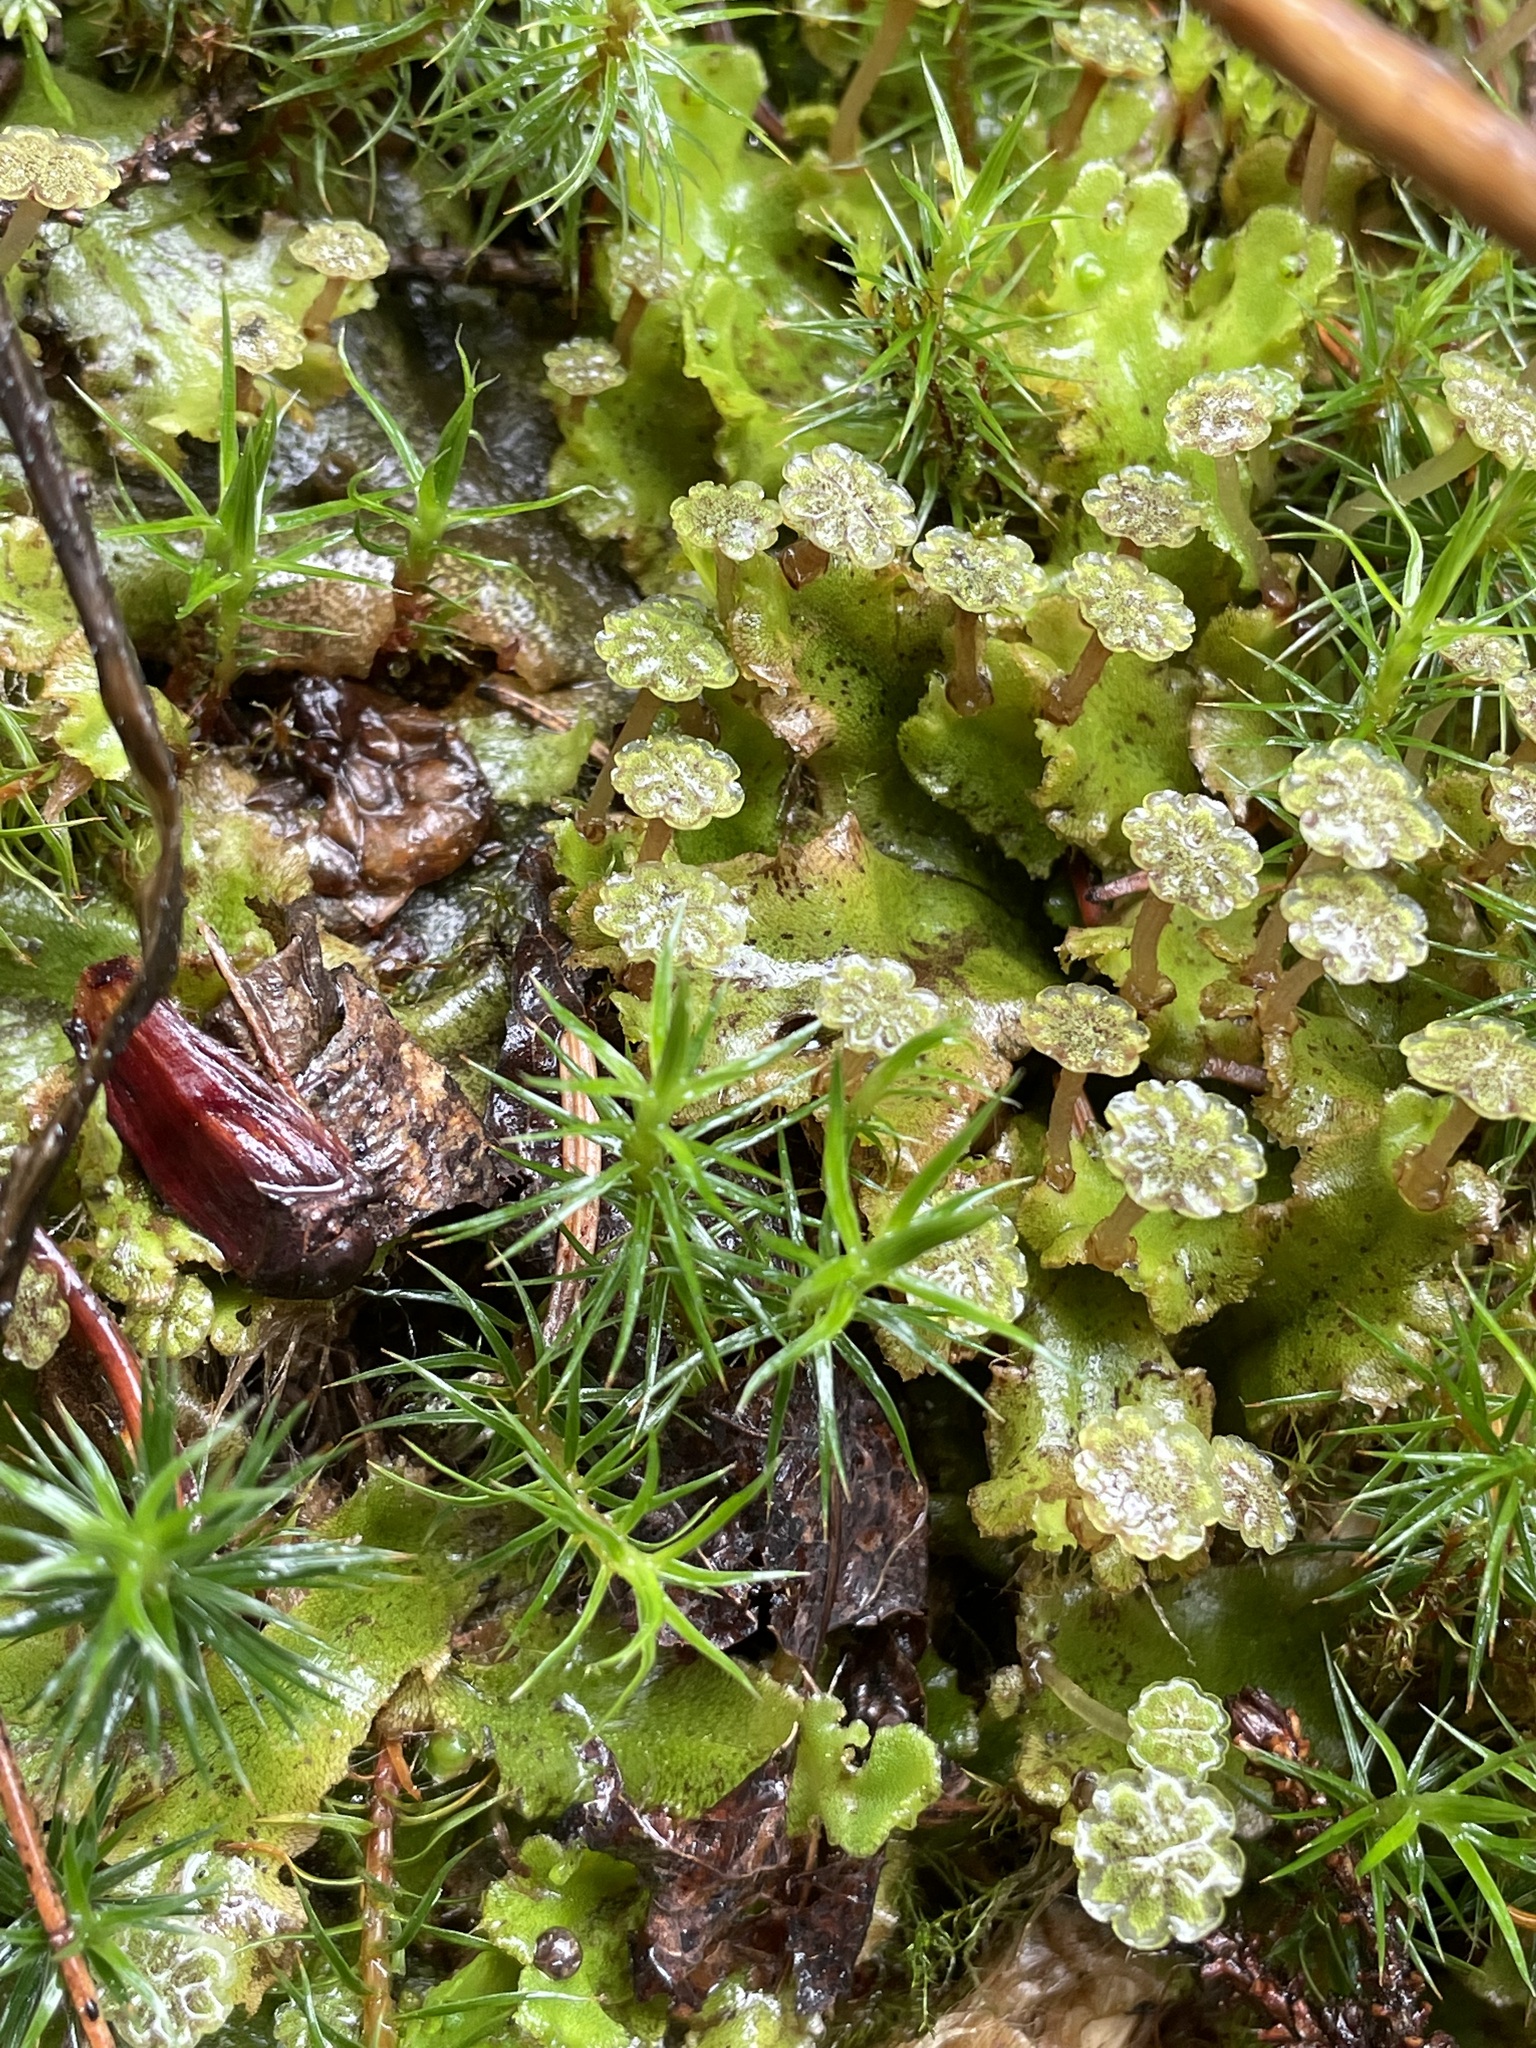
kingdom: Plantae
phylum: Marchantiophyta
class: Marchantiopsida
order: Marchantiales
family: Marchantiaceae
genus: Marchantia
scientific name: Marchantia polymorpha
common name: Common liverwort
